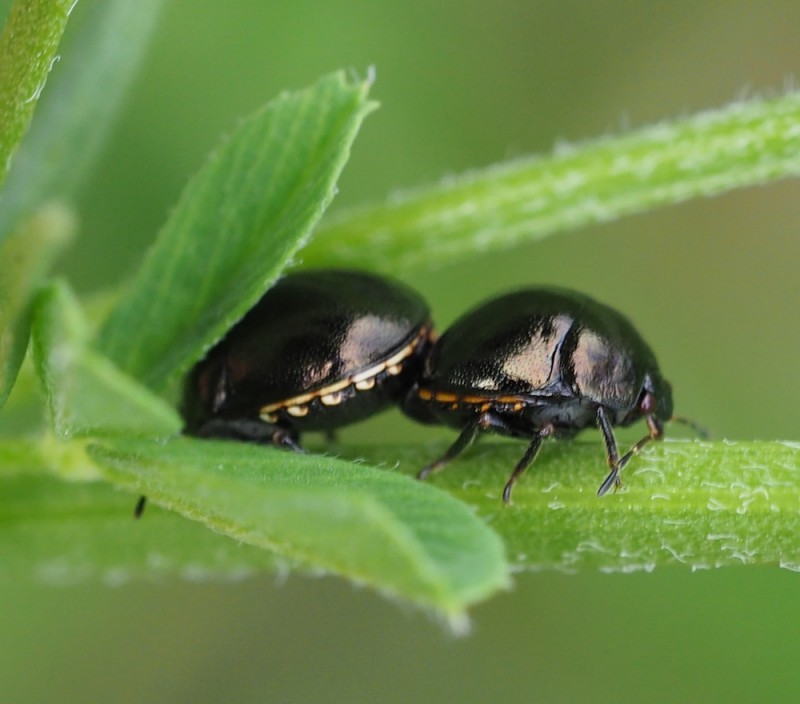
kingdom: Animalia
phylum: Arthropoda
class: Insecta
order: Hemiptera
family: Plataspidae
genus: Coptosoma
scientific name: Coptosoma scutellatum
